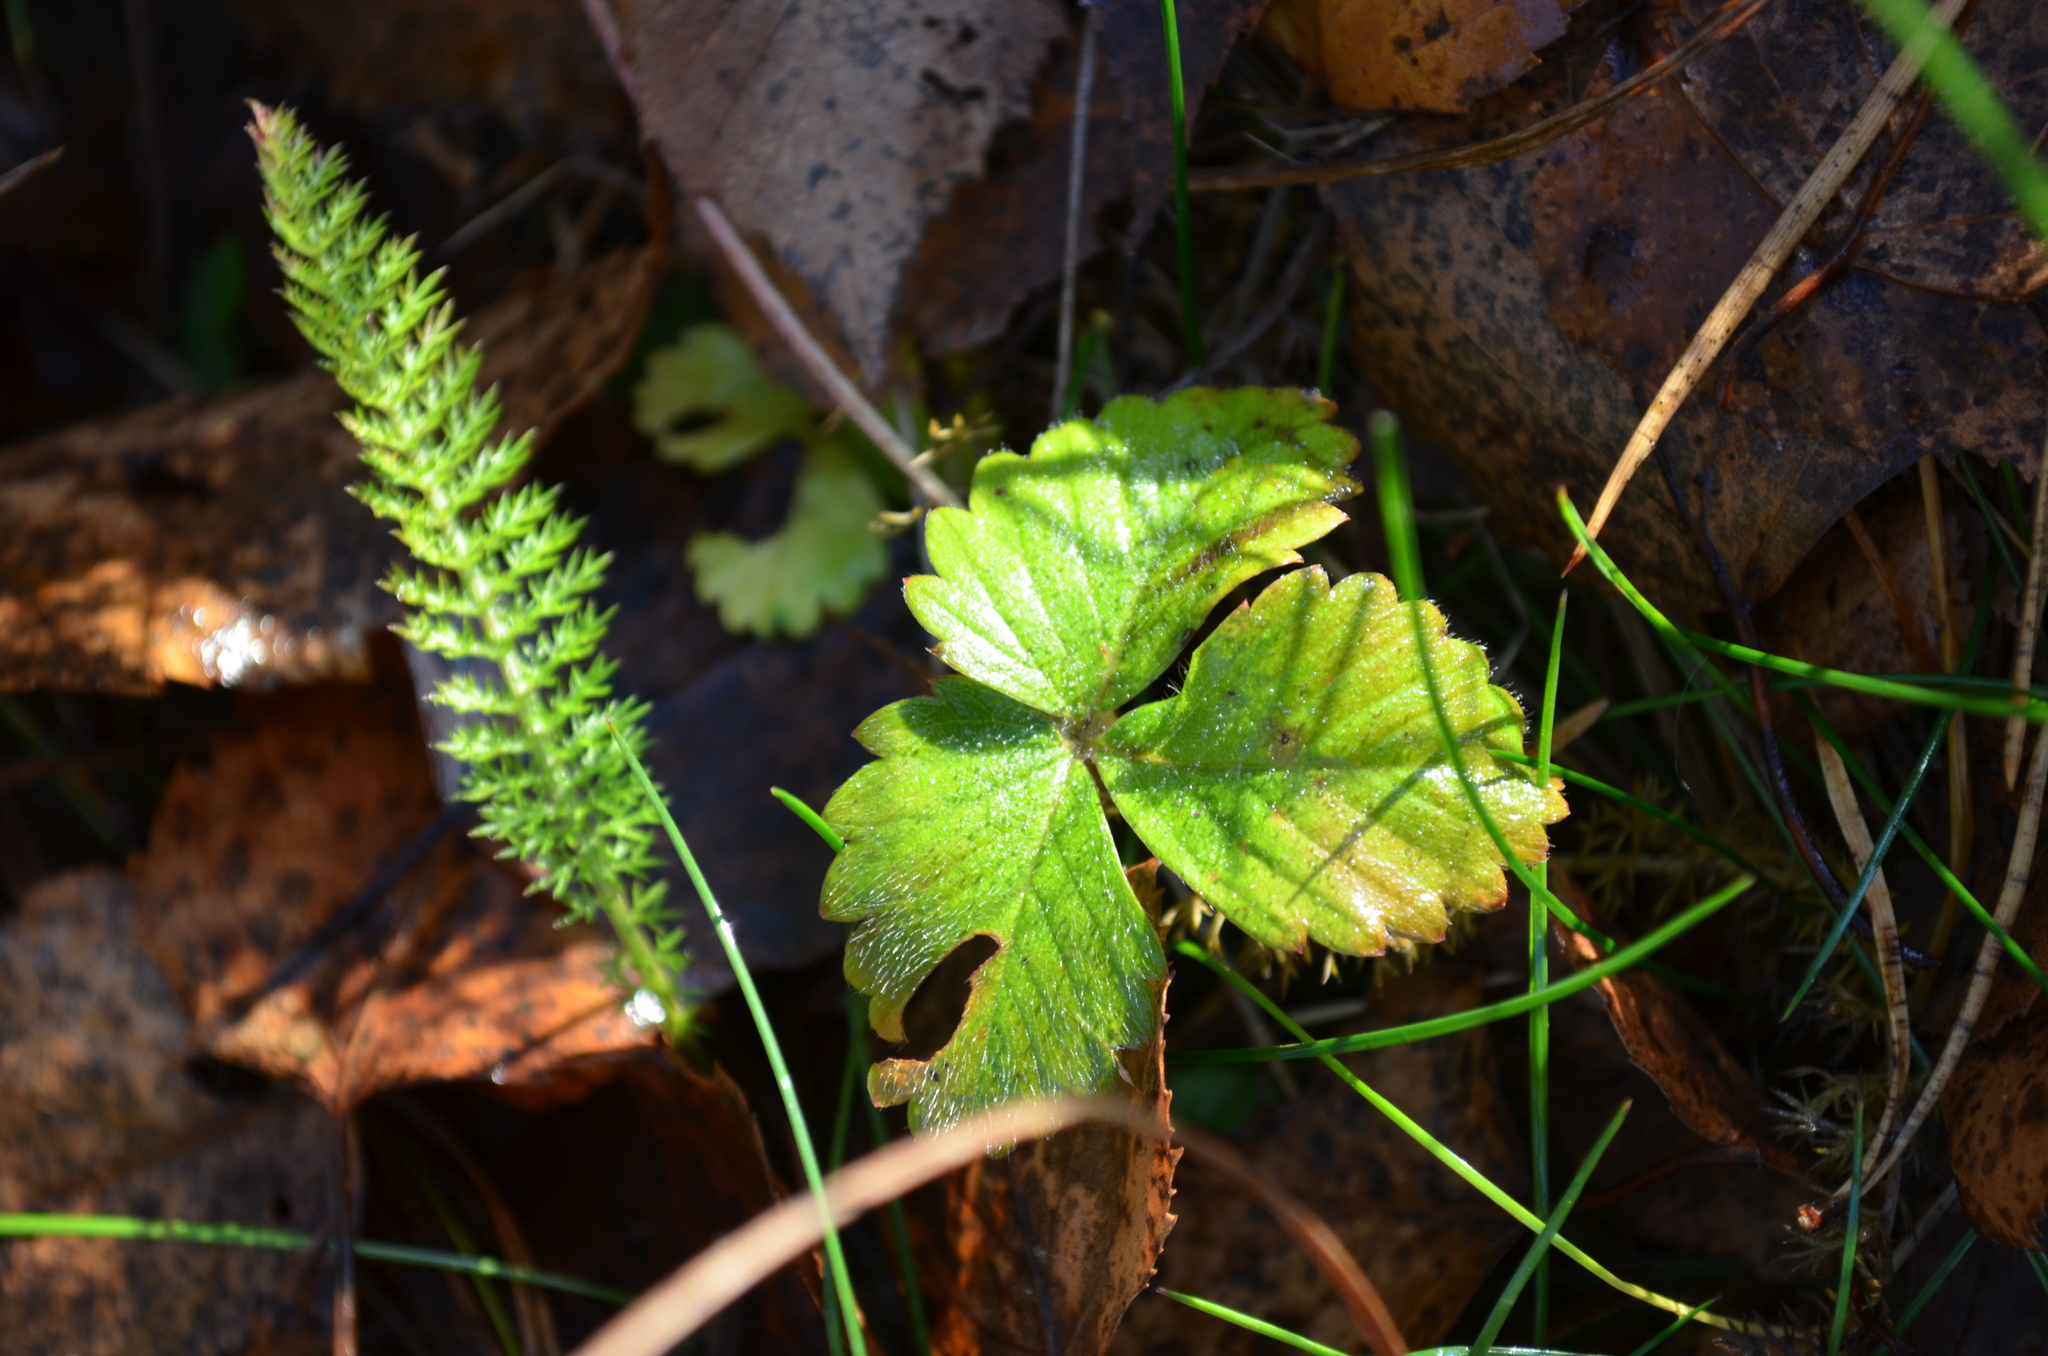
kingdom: Plantae
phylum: Tracheophyta
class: Magnoliopsida
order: Rosales
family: Rosaceae
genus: Fragaria
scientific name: Fragaria vesca
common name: Wild strawberry
